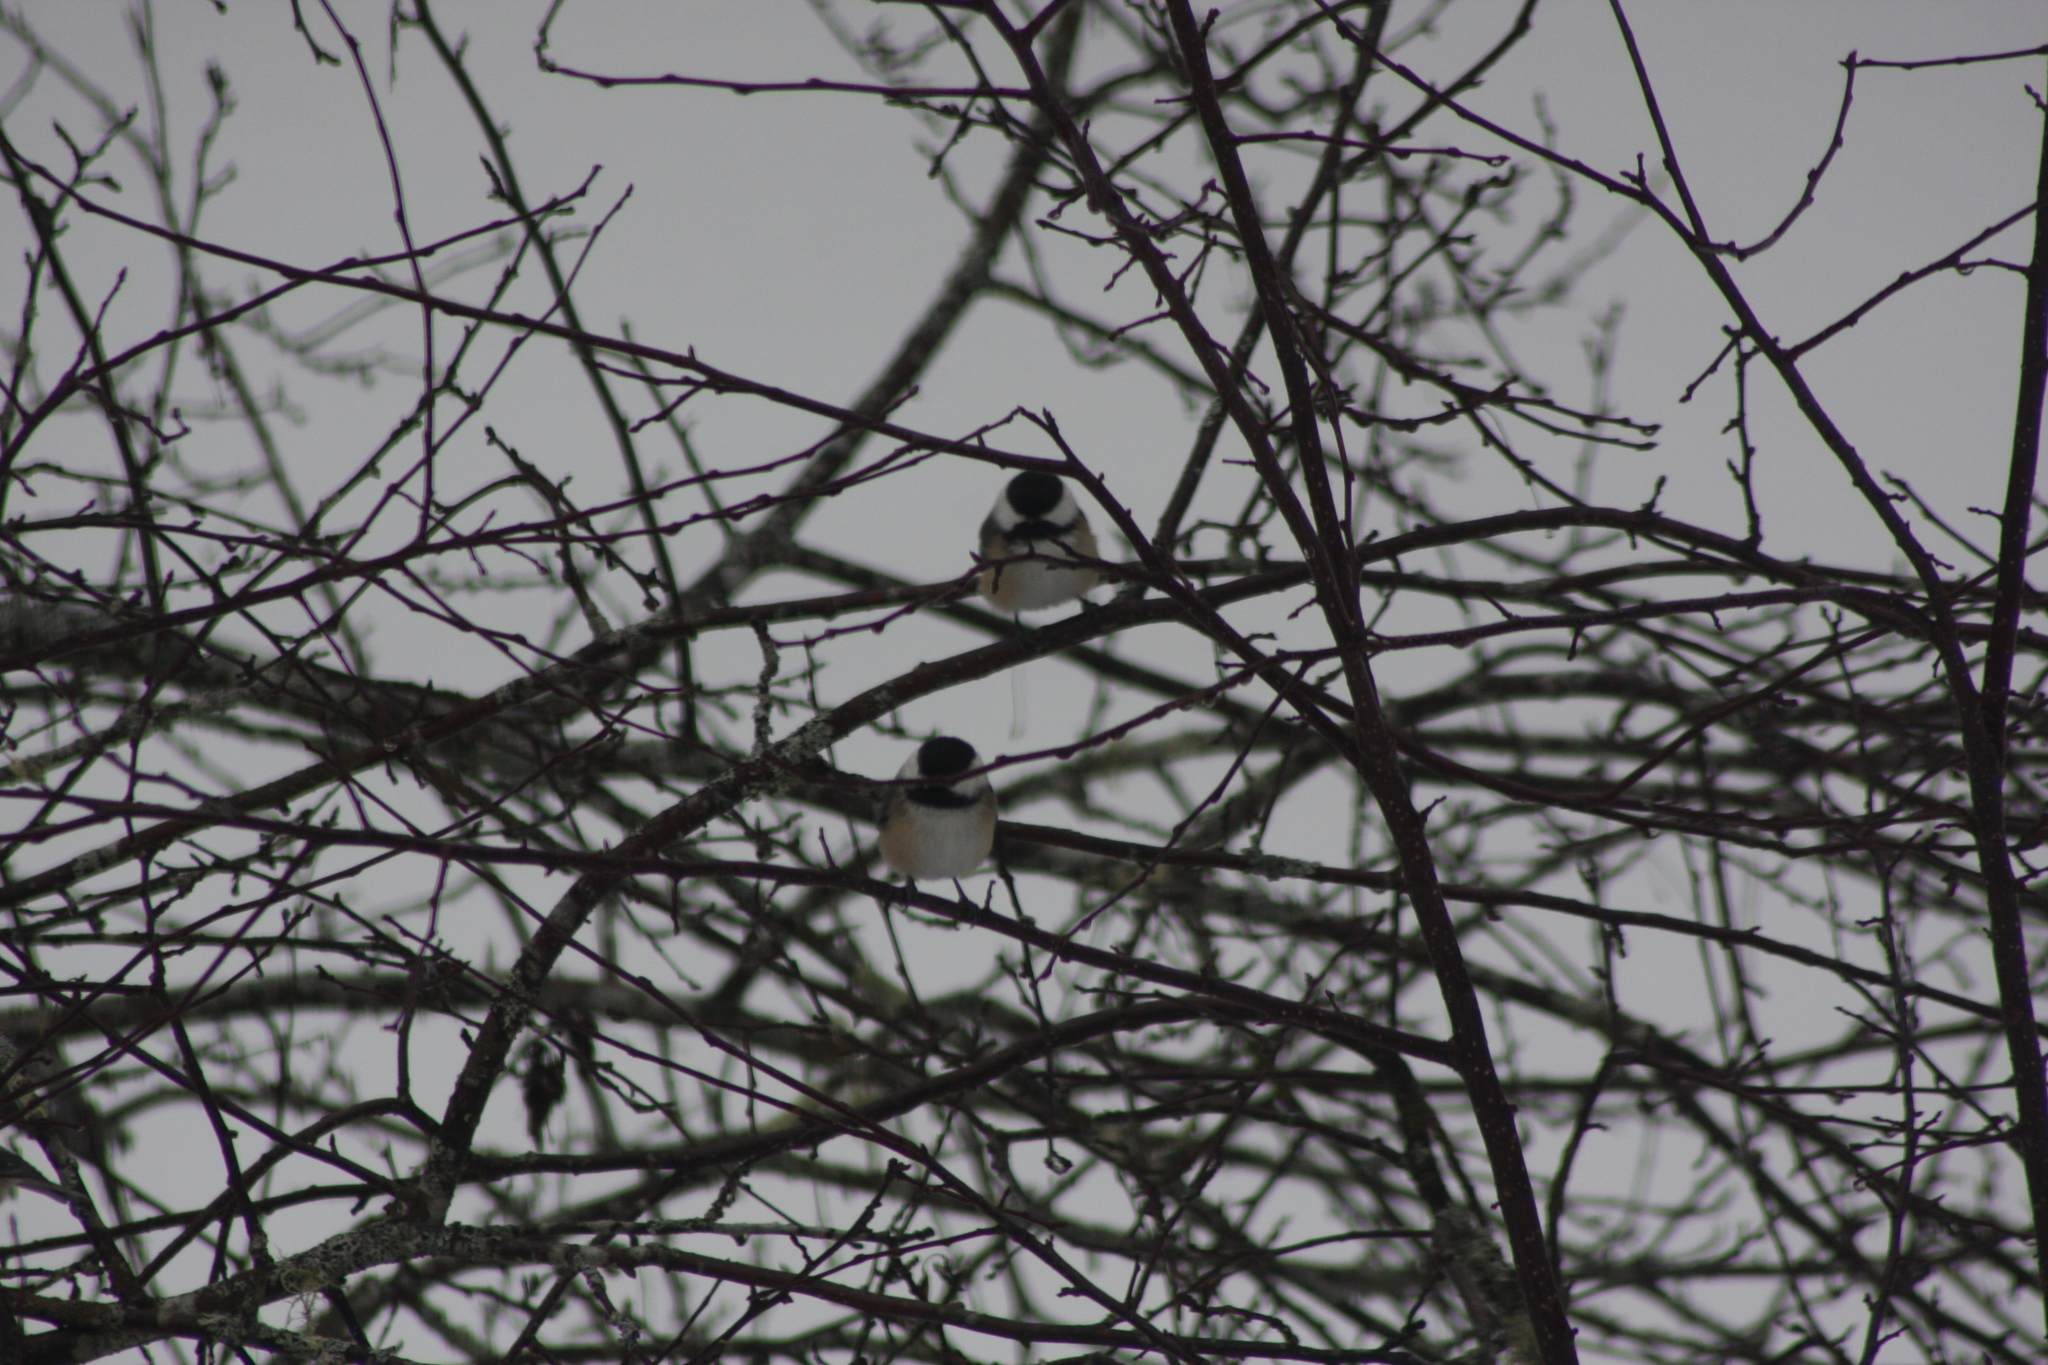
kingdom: Animalia
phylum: Chordata
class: Aves
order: Passeriformes
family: Paridae
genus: Poecile
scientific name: Poecile atricapillus
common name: Black-capped chickadee
